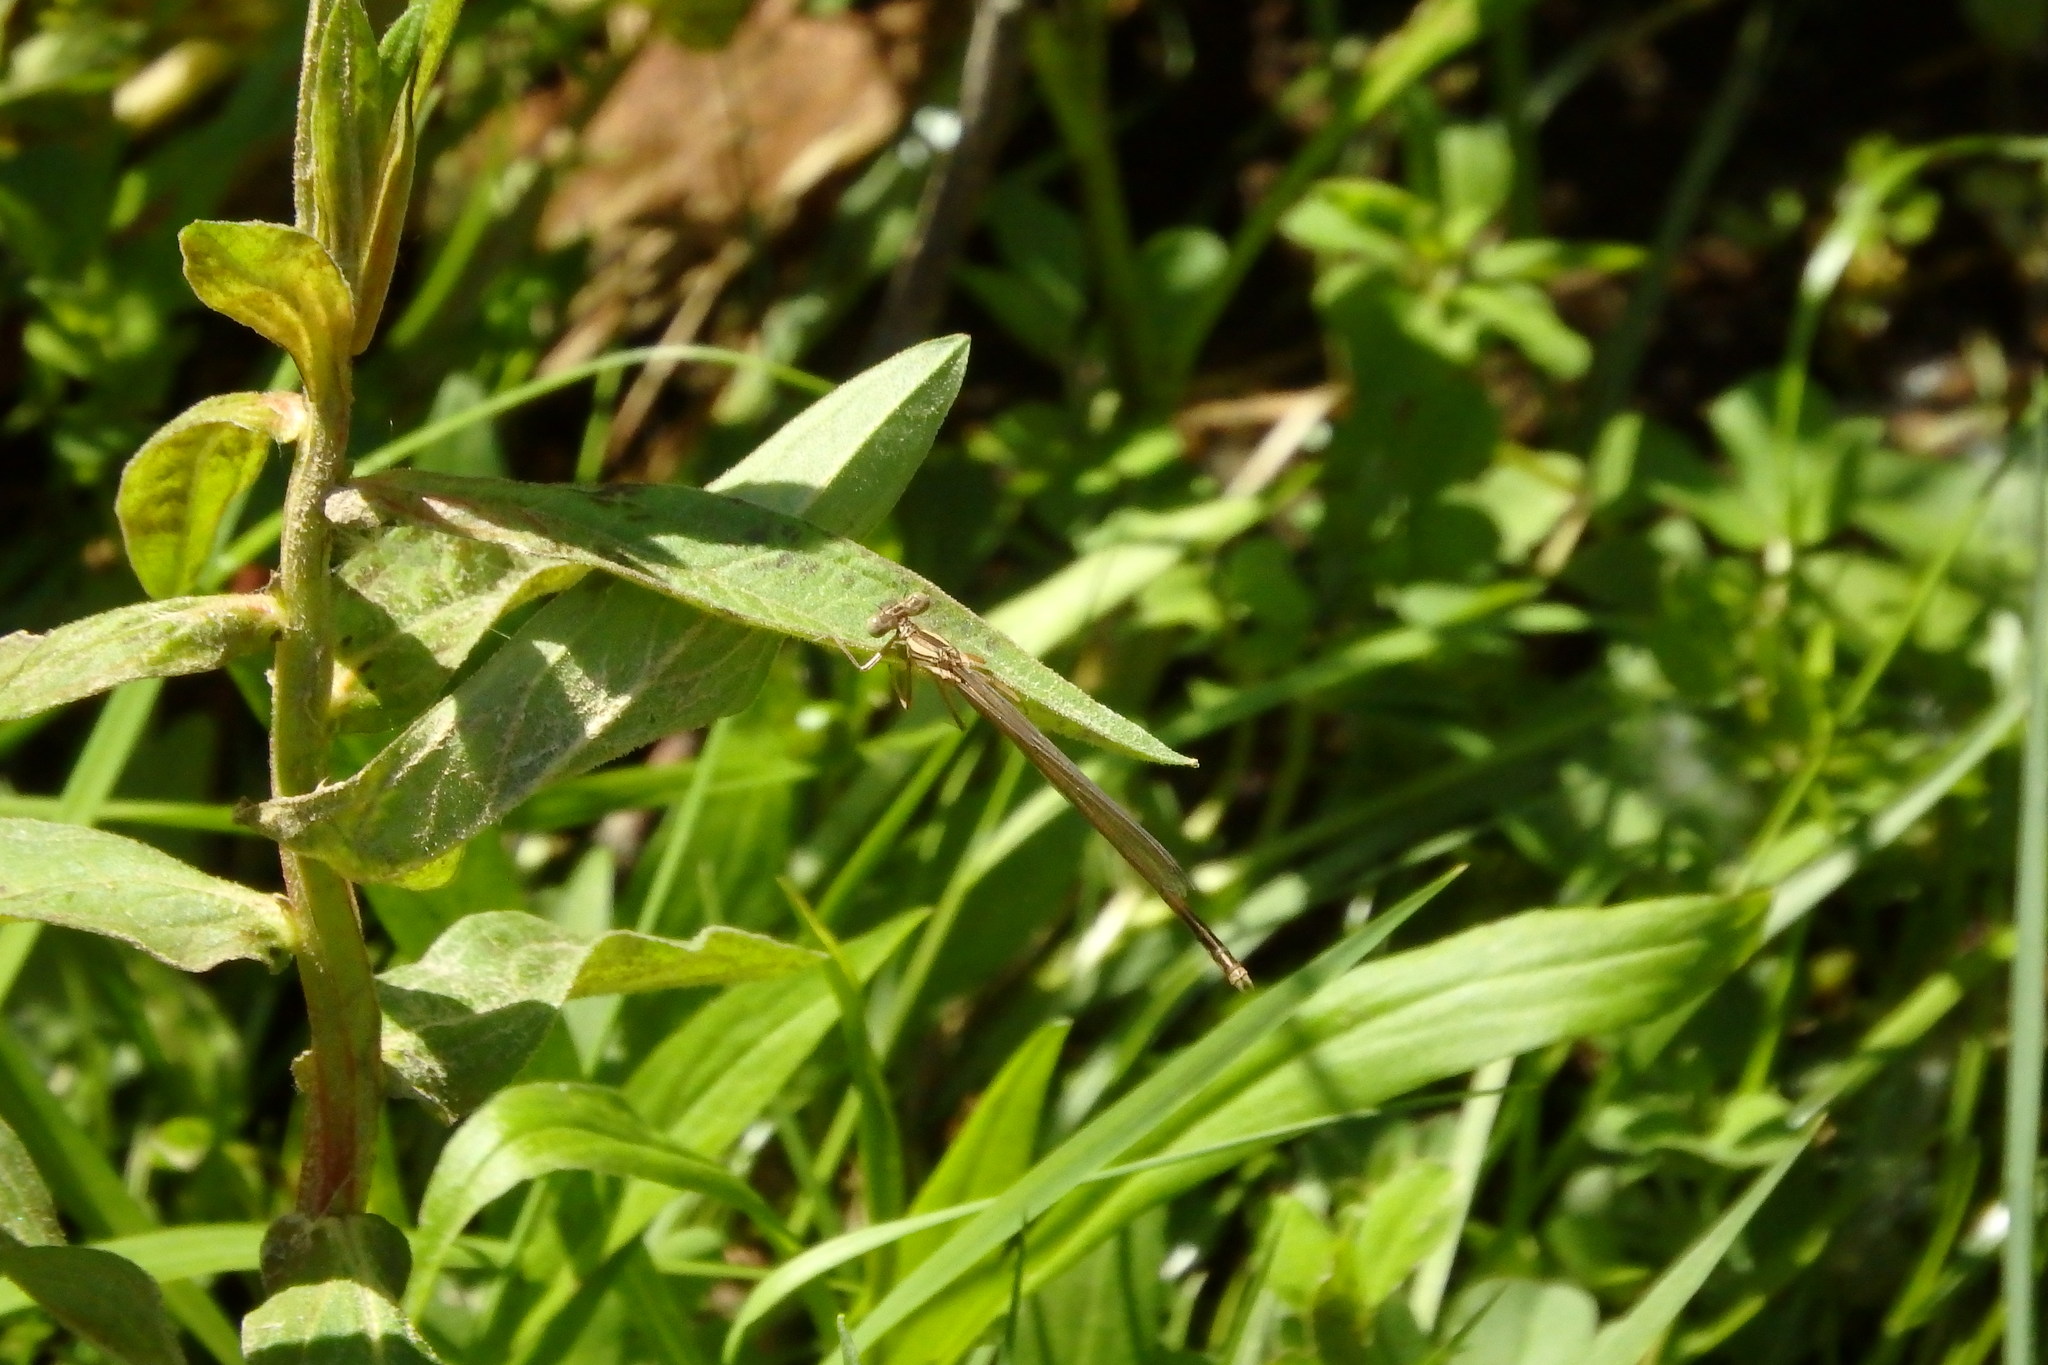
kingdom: Animalia
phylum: Arthropoda
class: Insecta
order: Odonata
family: Platycnemididae
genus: Platycnemis
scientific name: Platycnemis acutipennis
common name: Orange featherleg
